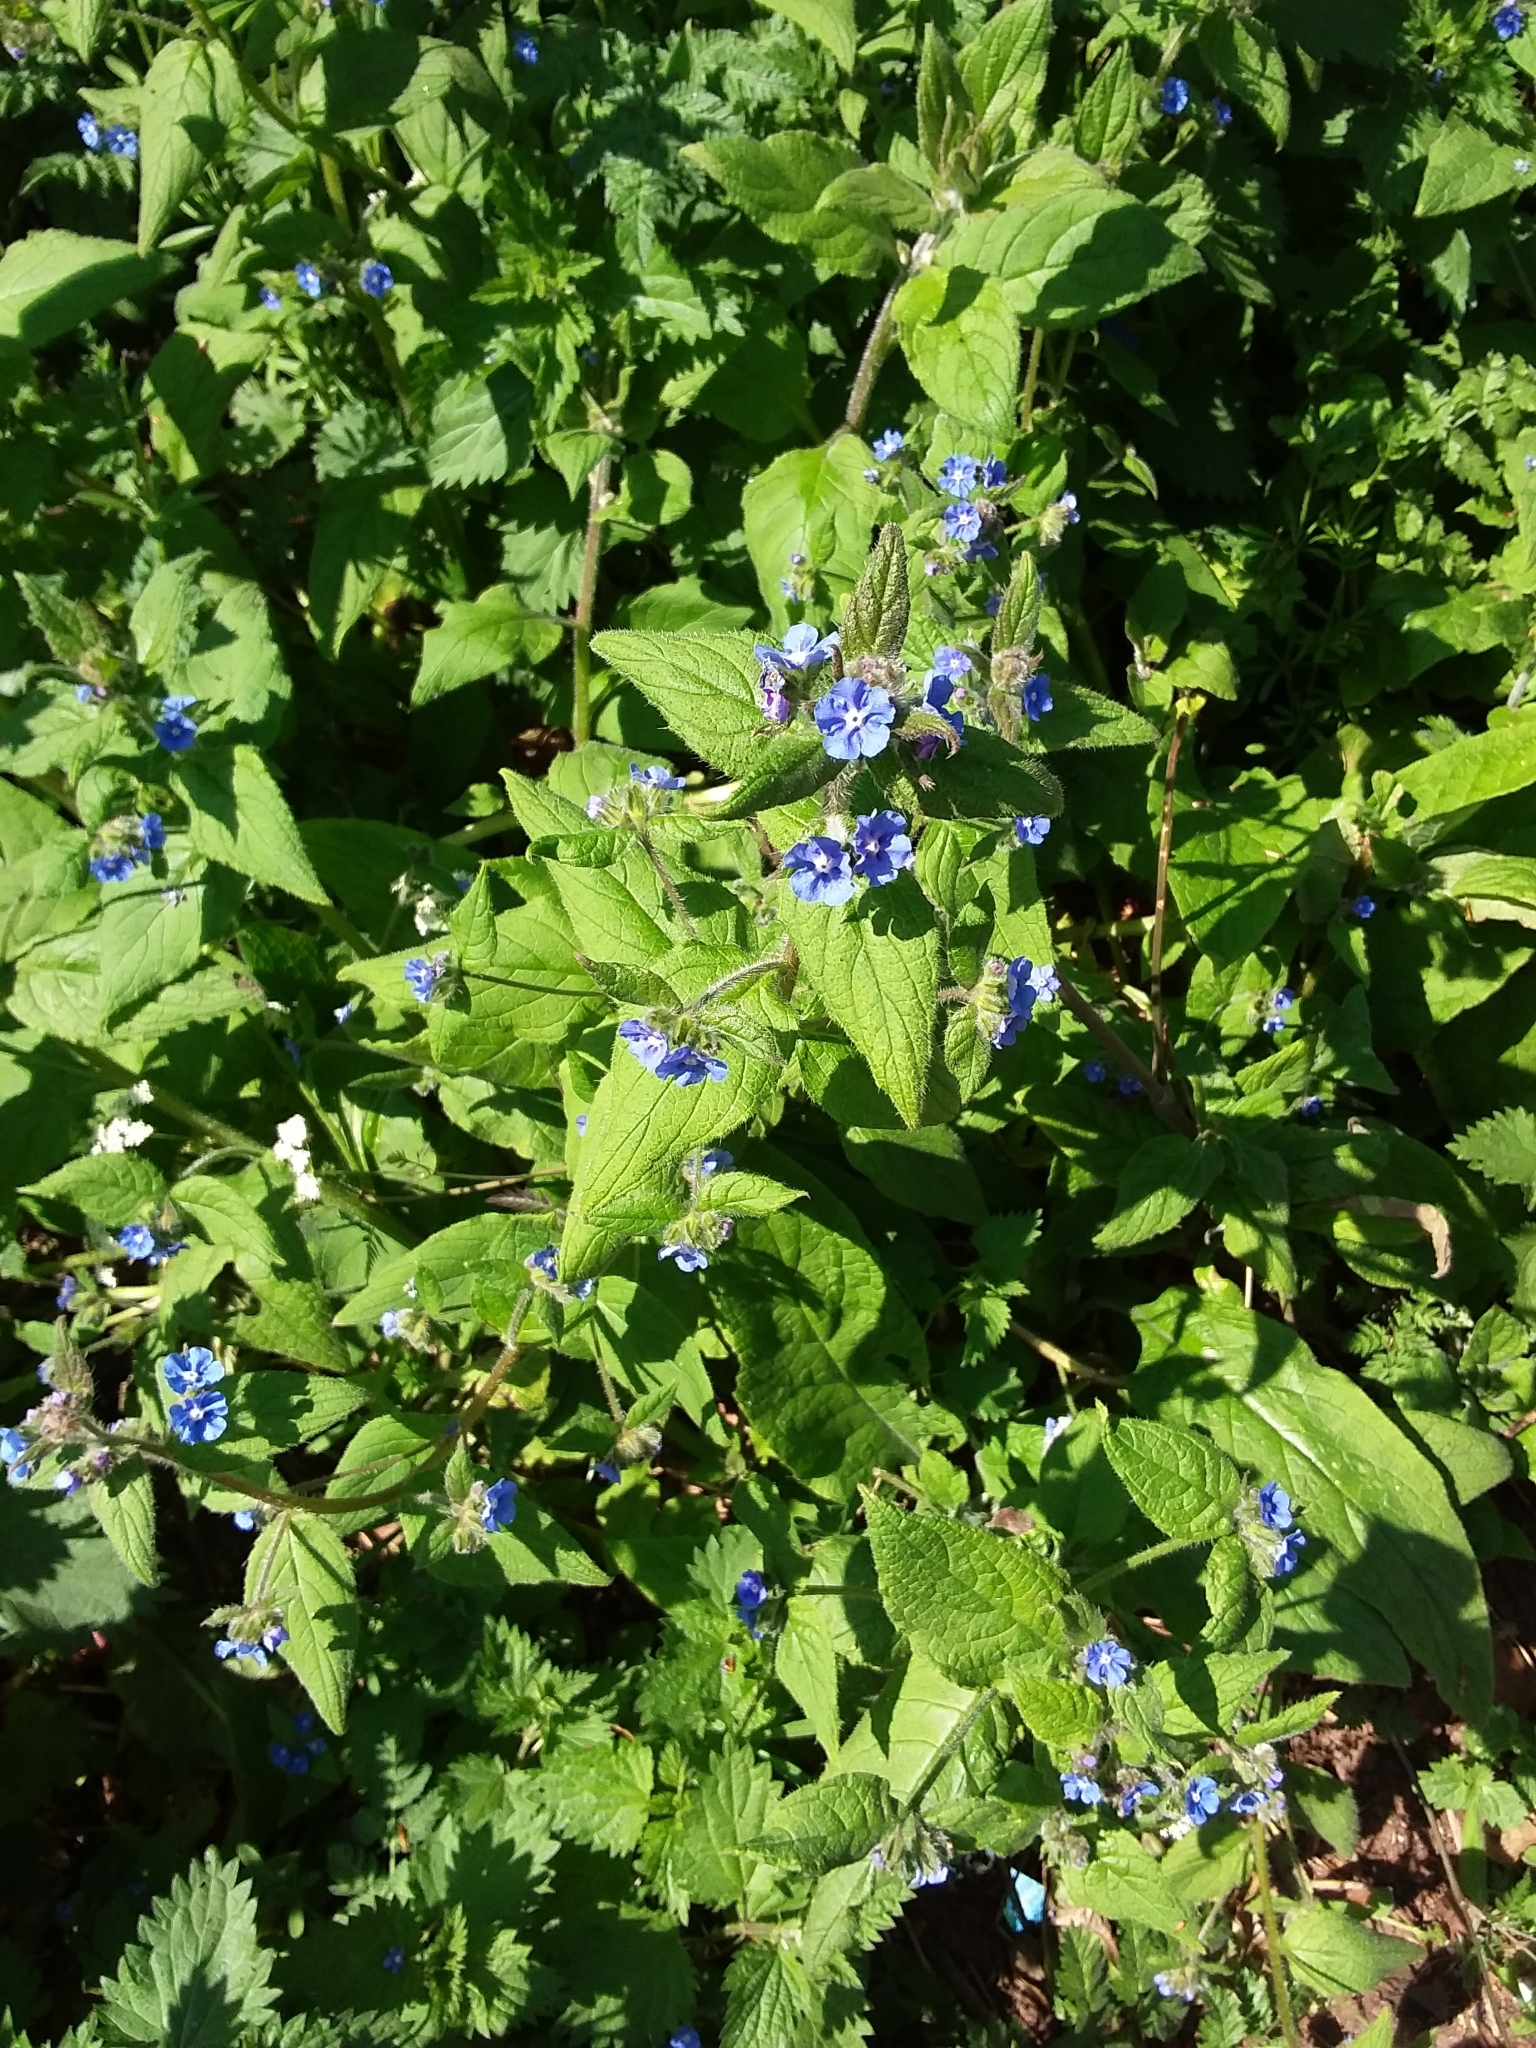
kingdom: Plantae
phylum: Tracheophyta
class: Magnoliopsida
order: Boraginales
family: Boraginaceae
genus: Pentaglottis
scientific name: Pentaglottis sempervirens
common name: Green alkanet
